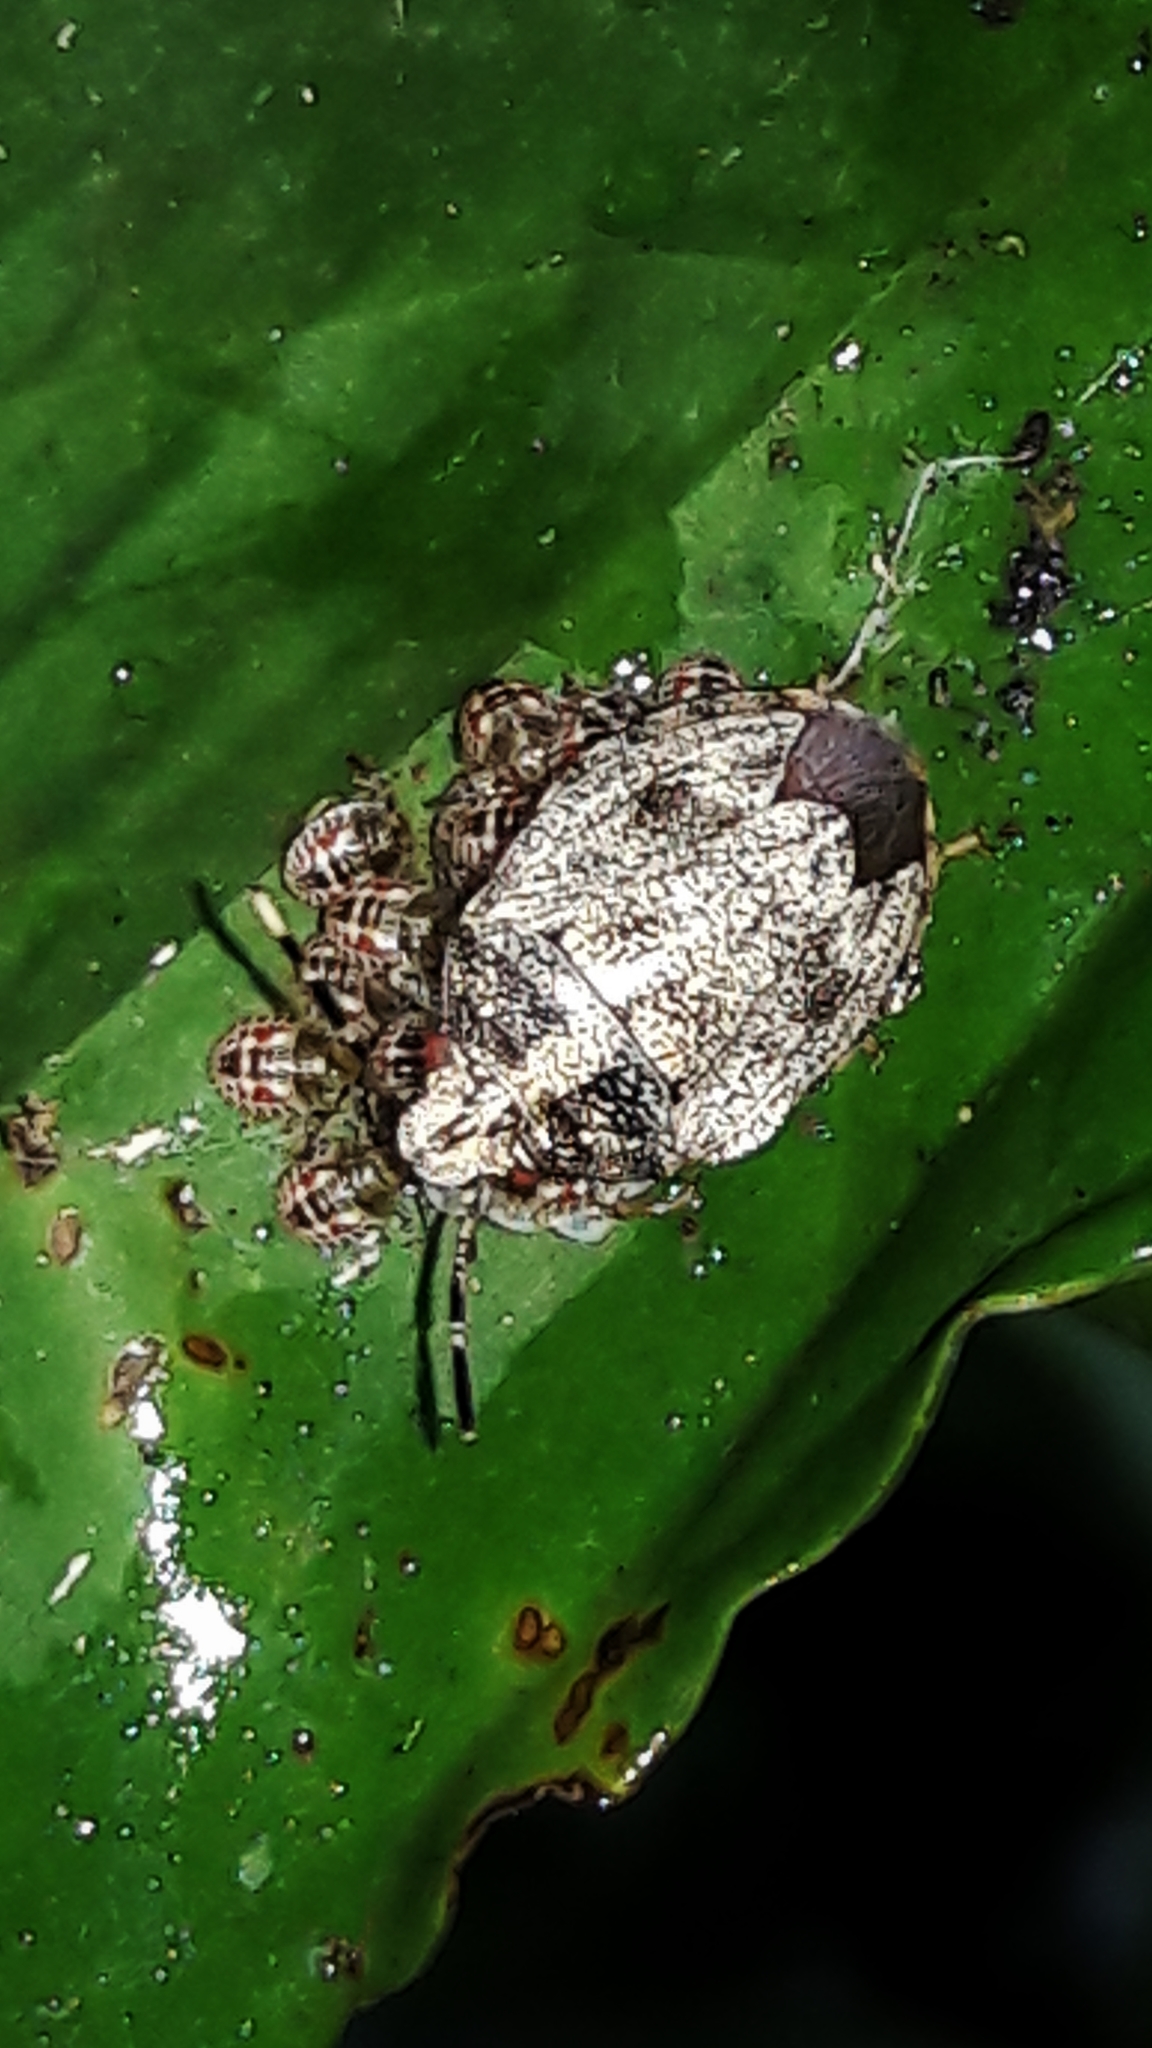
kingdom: Animalia
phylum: Arthropoda
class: Insecta
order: Hemiptera
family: Pentatomidae
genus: Antiteuchus
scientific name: Antiteuchus tripterus
